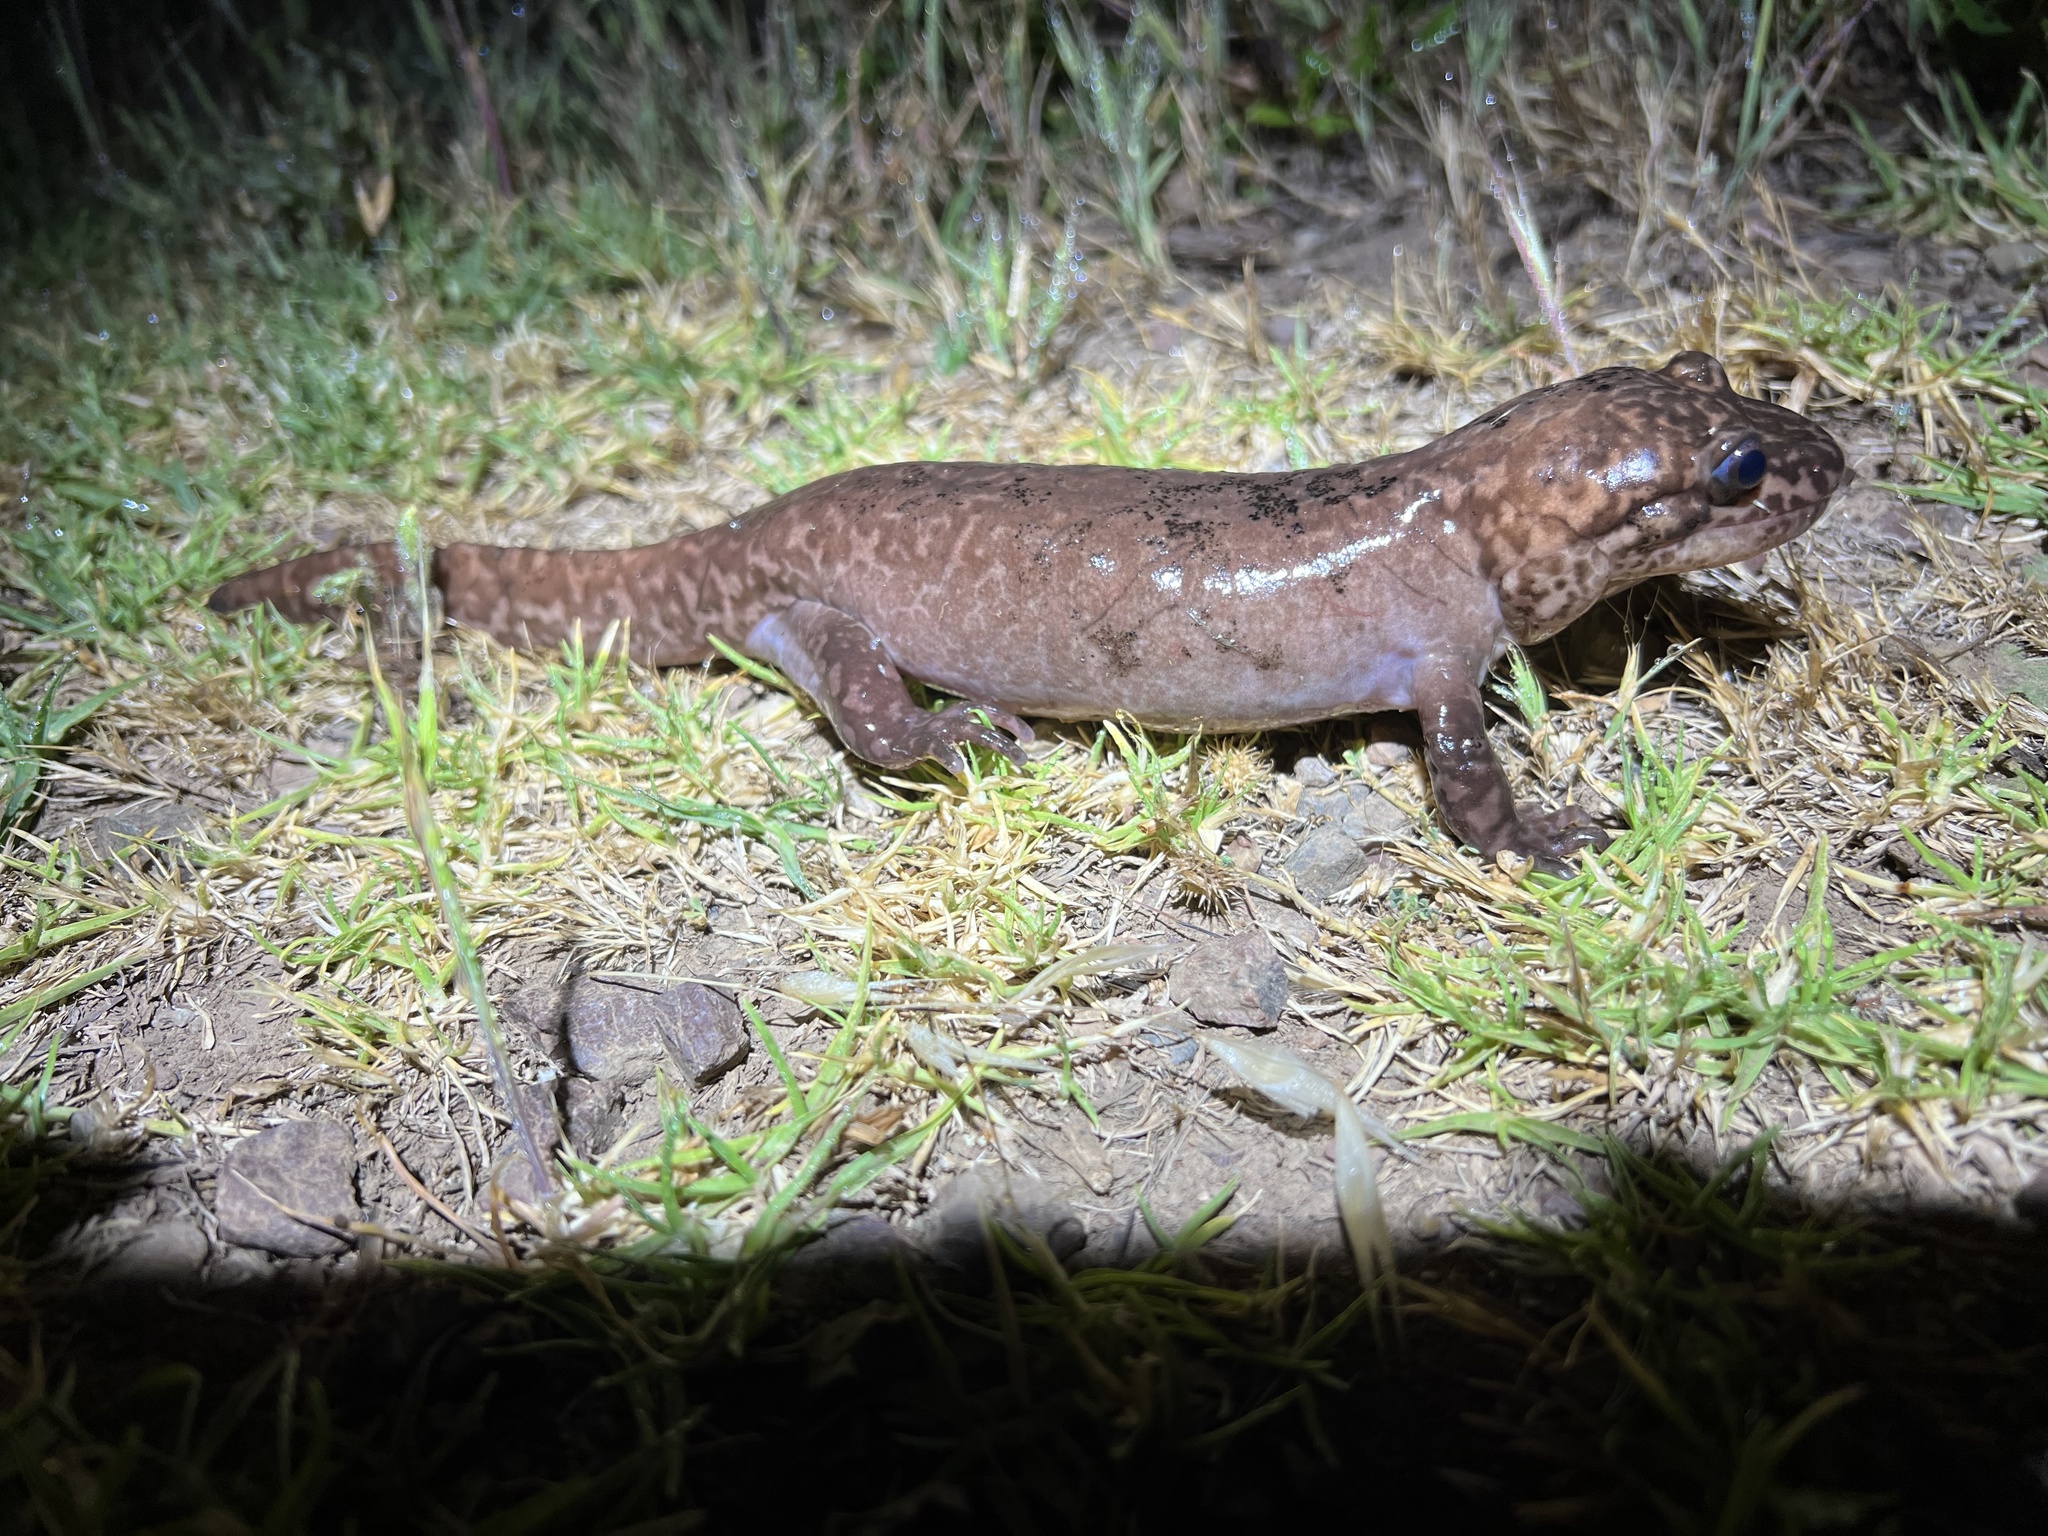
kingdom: Animalia
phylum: Chordata
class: Amphibia
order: Caudata
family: Ambystomatidae
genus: Dicamptodon
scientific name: Dicamptodon ensatus
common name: California giant salamander
